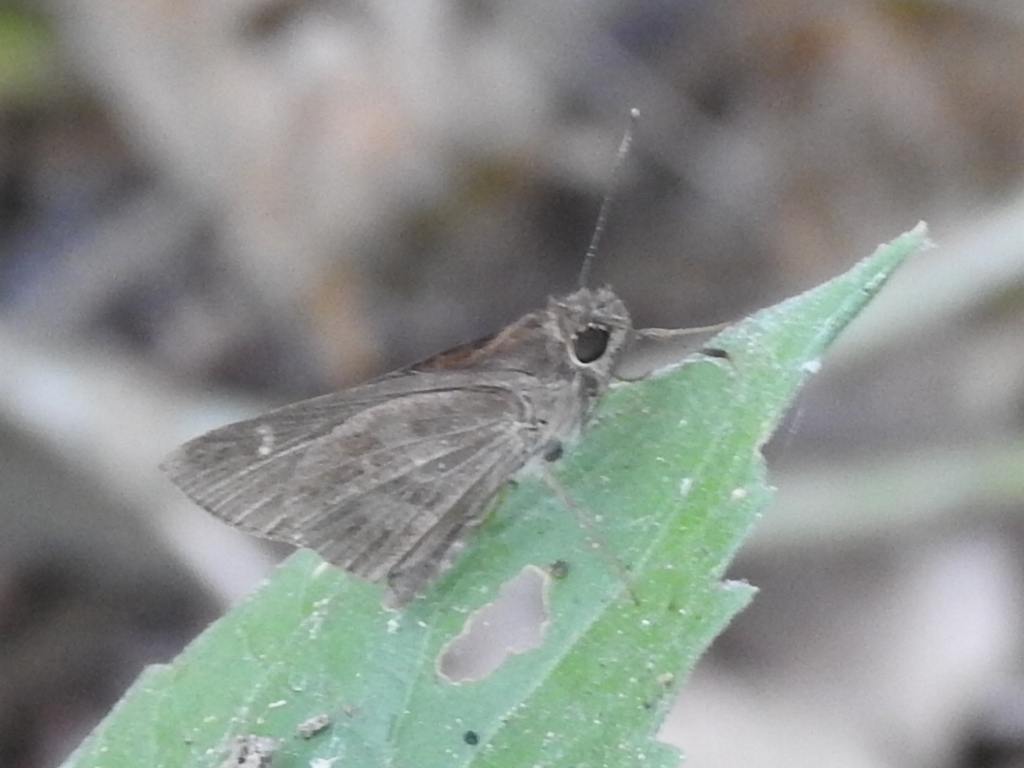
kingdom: Animalia
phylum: Arthropoda
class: Insecta
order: Lepidoptera
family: Hesperiidae
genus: Cymaenes
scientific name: Cymaenes
